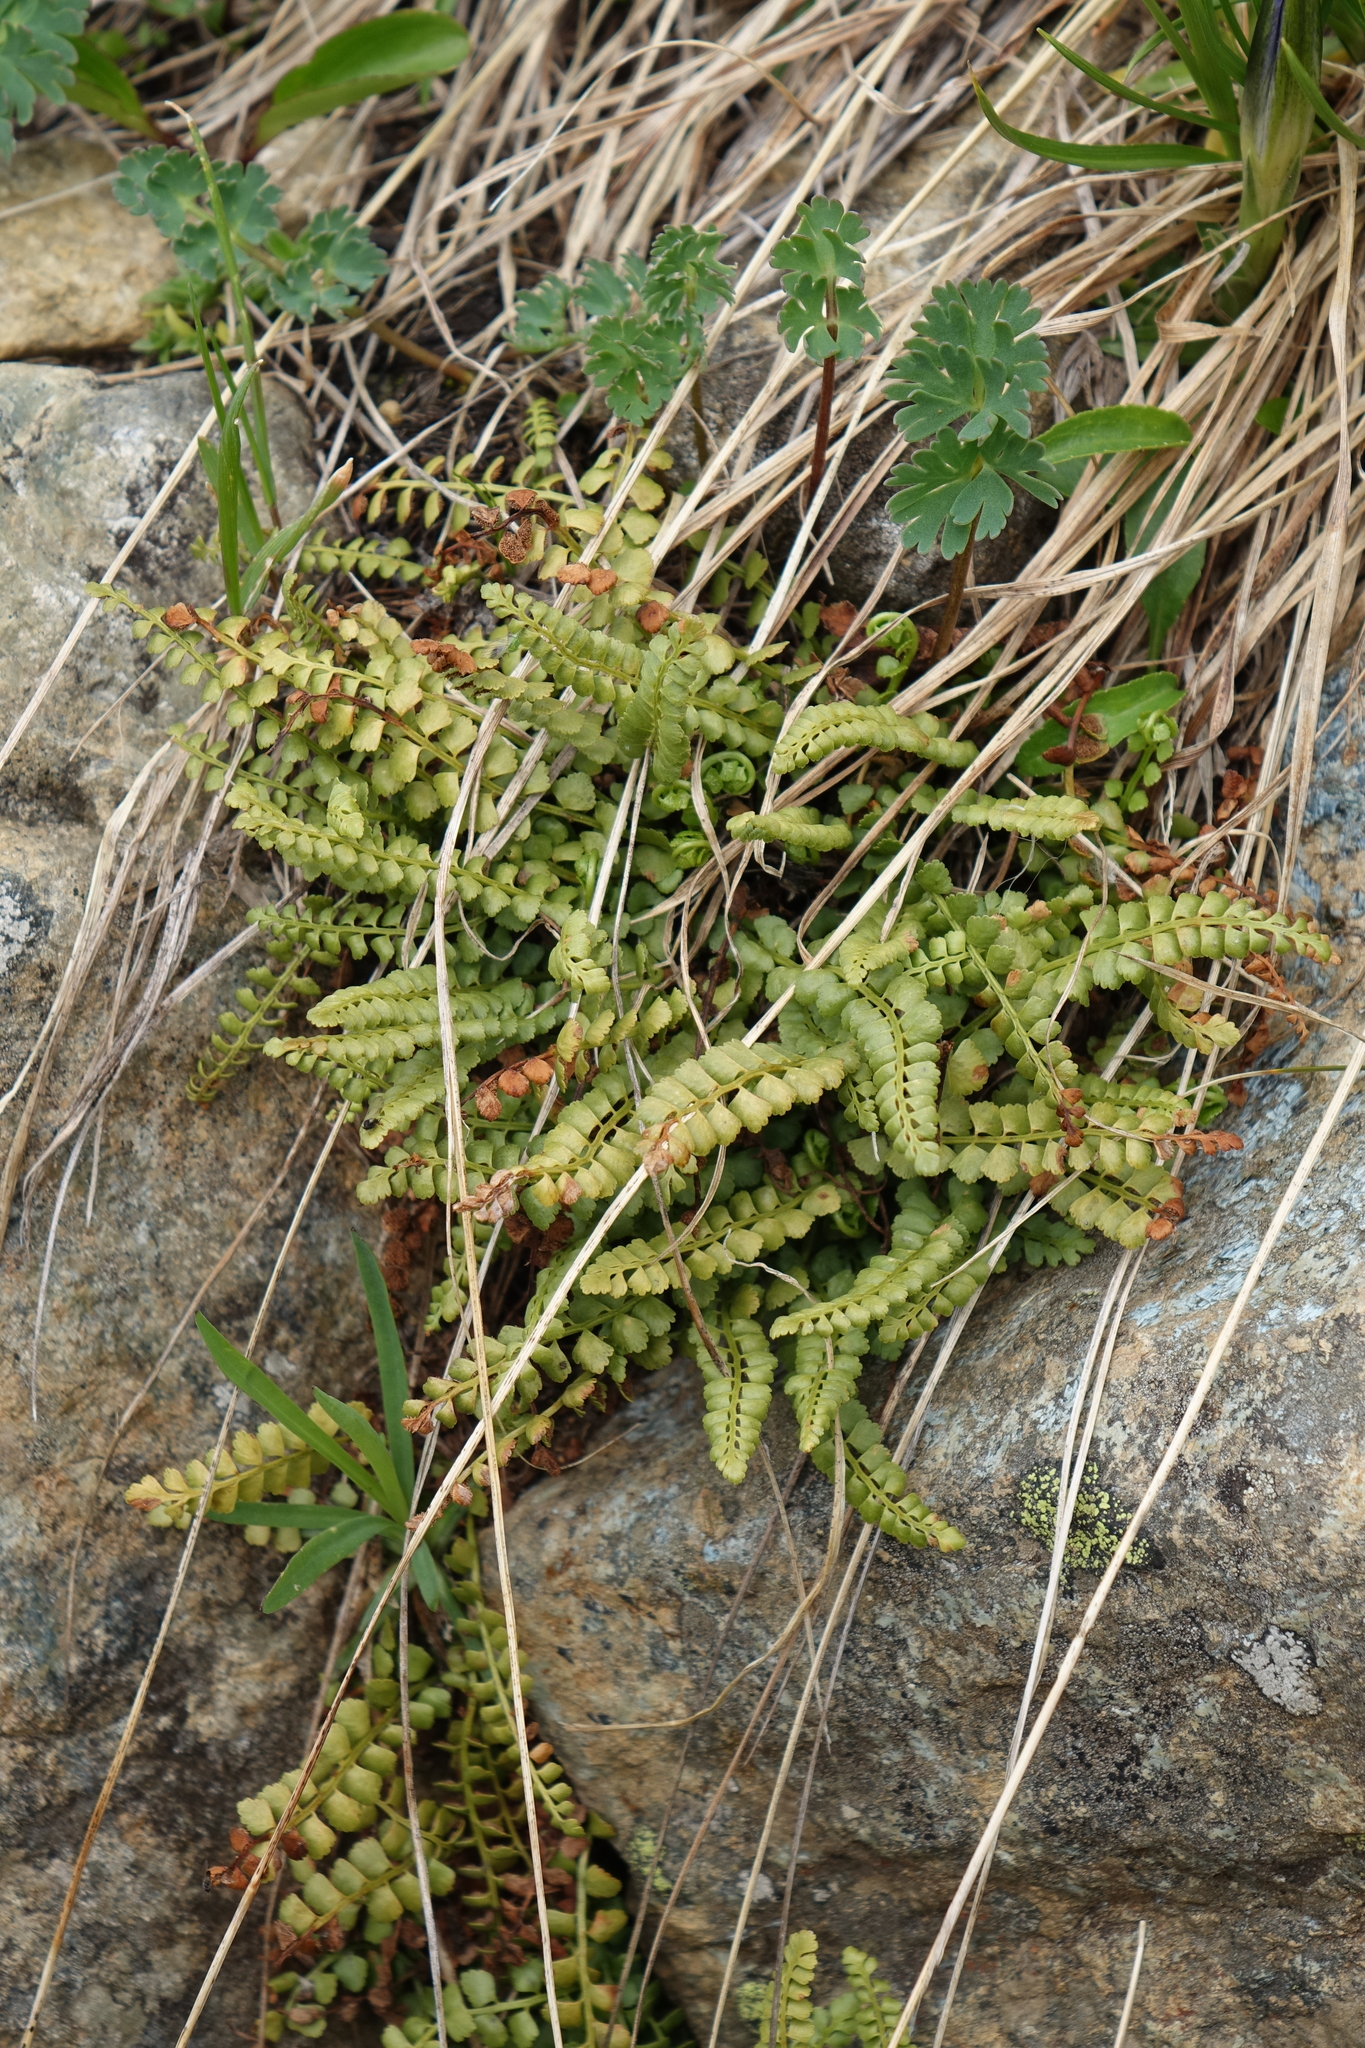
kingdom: Plantae
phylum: Tracheophyta
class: Polypodiopsida
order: Polypodiales
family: Aspleniaceae
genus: Asplenium
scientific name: Asplenium viride
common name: Green spleenwort
